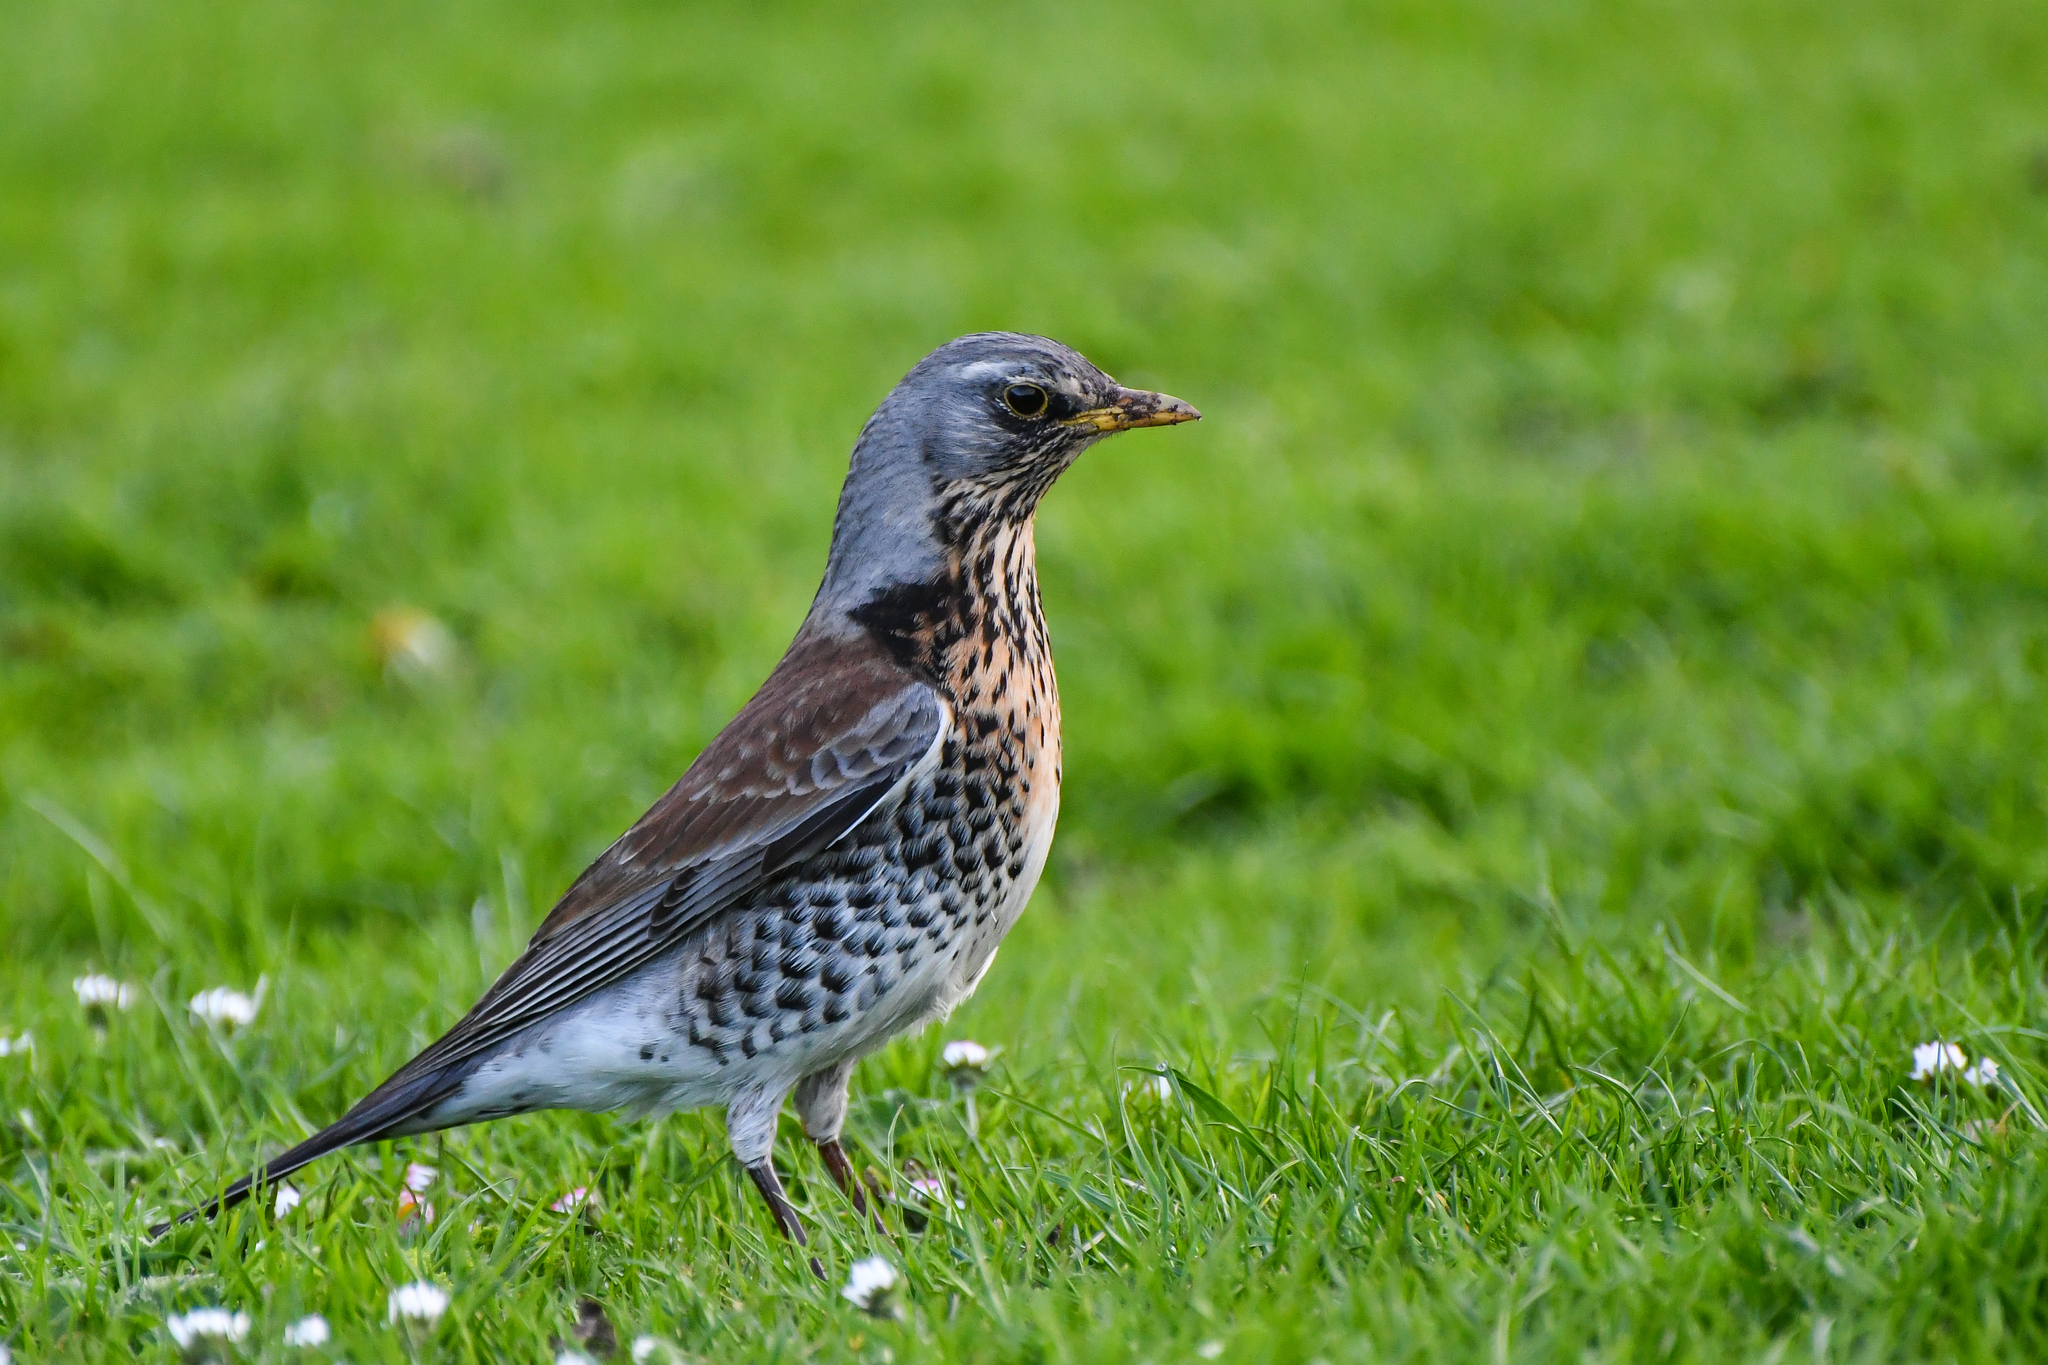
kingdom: Animalia
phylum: Chordata
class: Aves
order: Passeriformes
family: Turdidae
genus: Turdus
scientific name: Turdus pilaris
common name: Fieldfare
